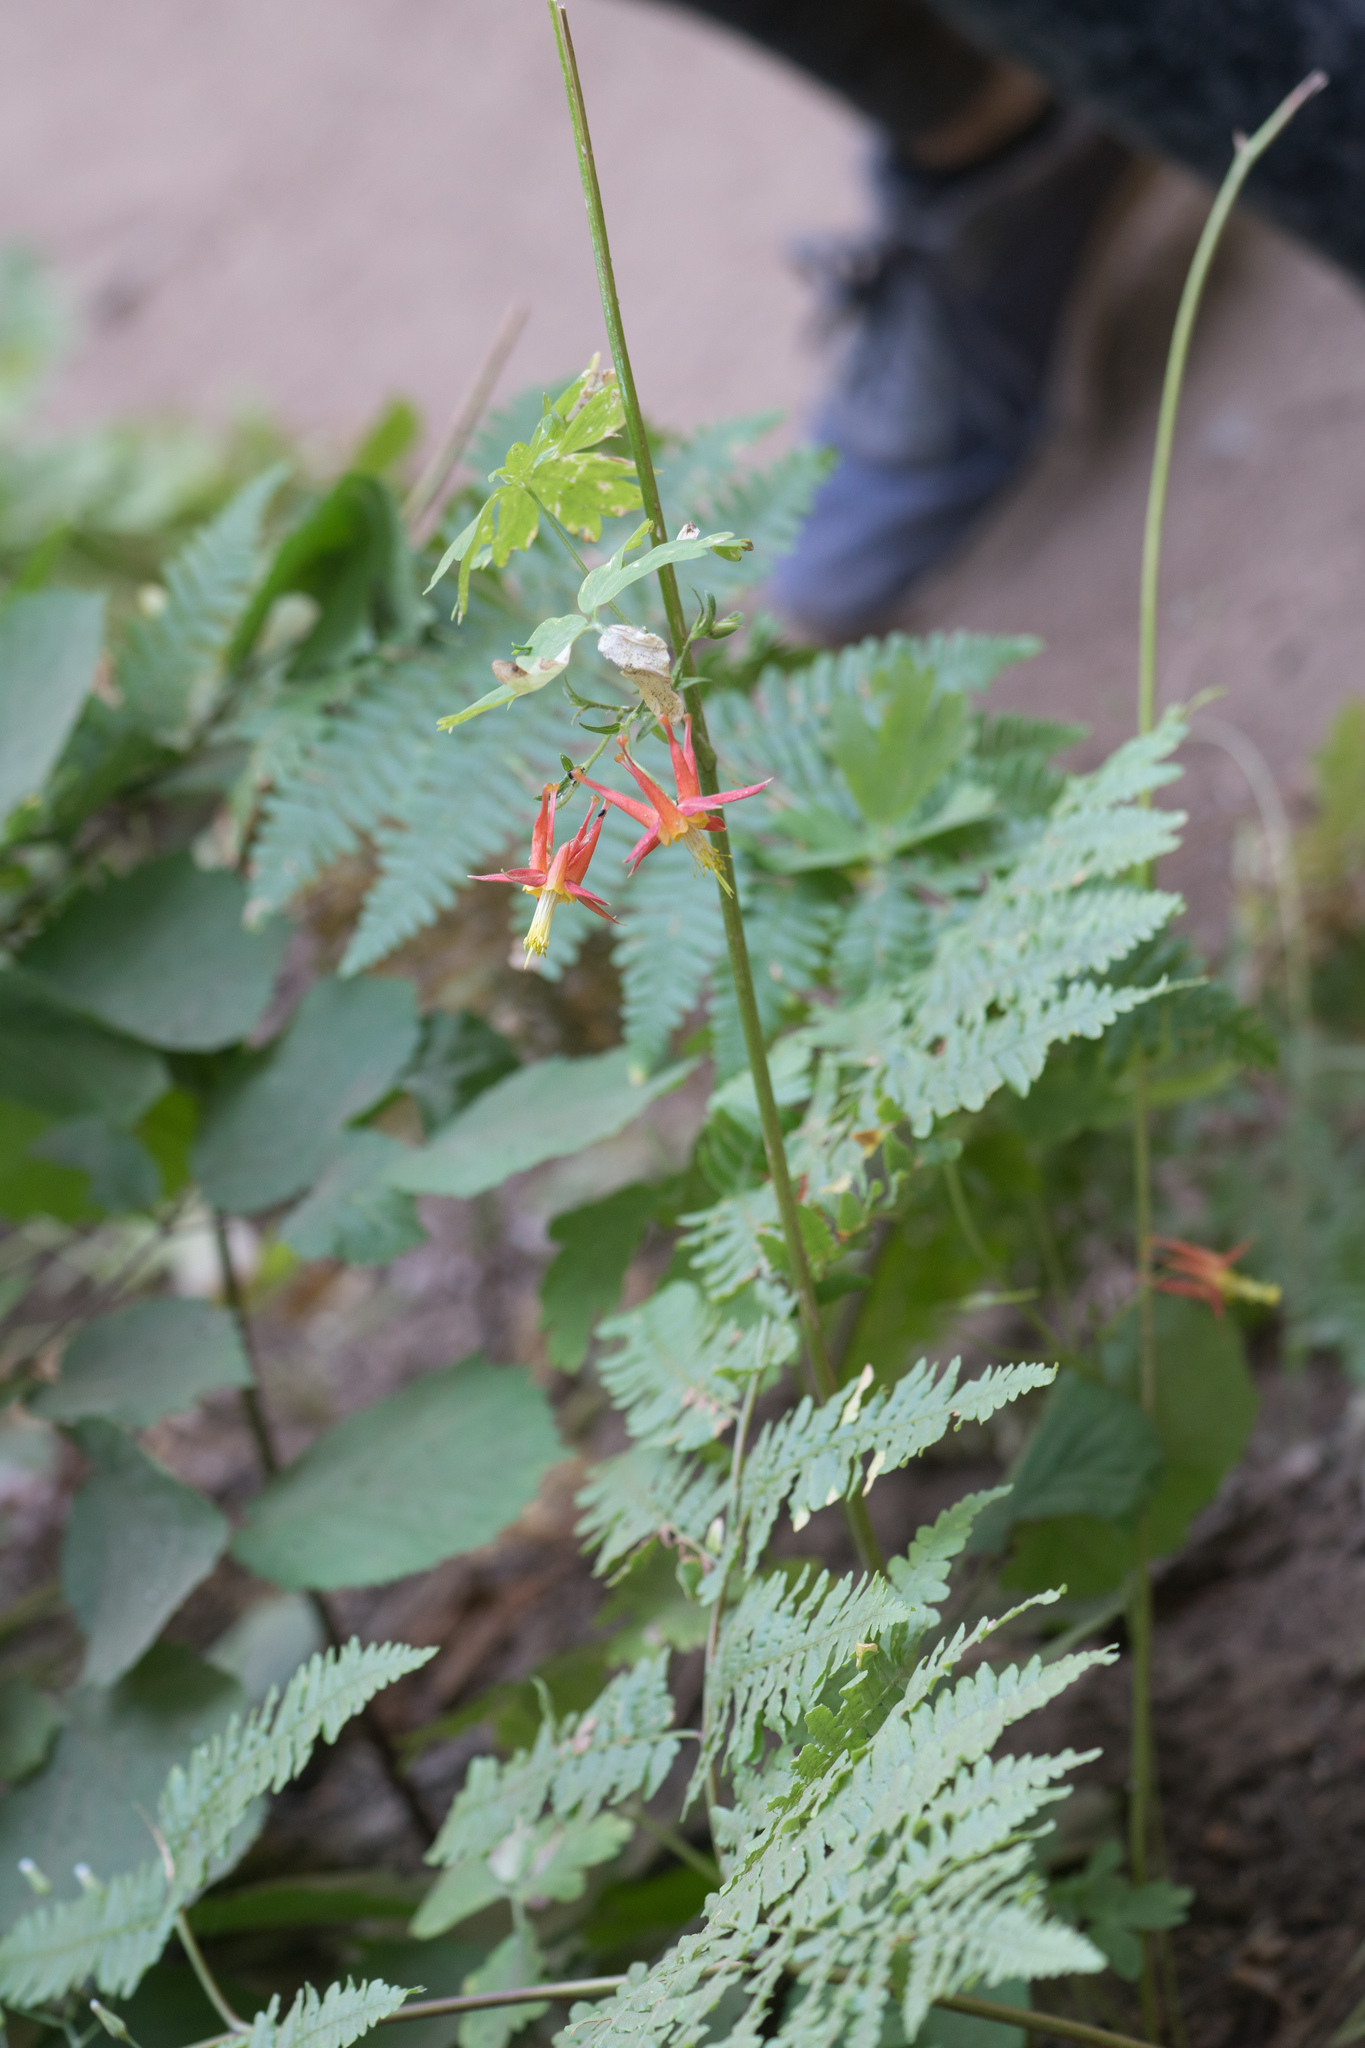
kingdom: Plantae
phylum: Tracheophyta
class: Magnoliopsida
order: Ranunculales
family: Ranunculaceae
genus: Aquilegia
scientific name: Aquilegia formosa
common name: Sitka columbine
